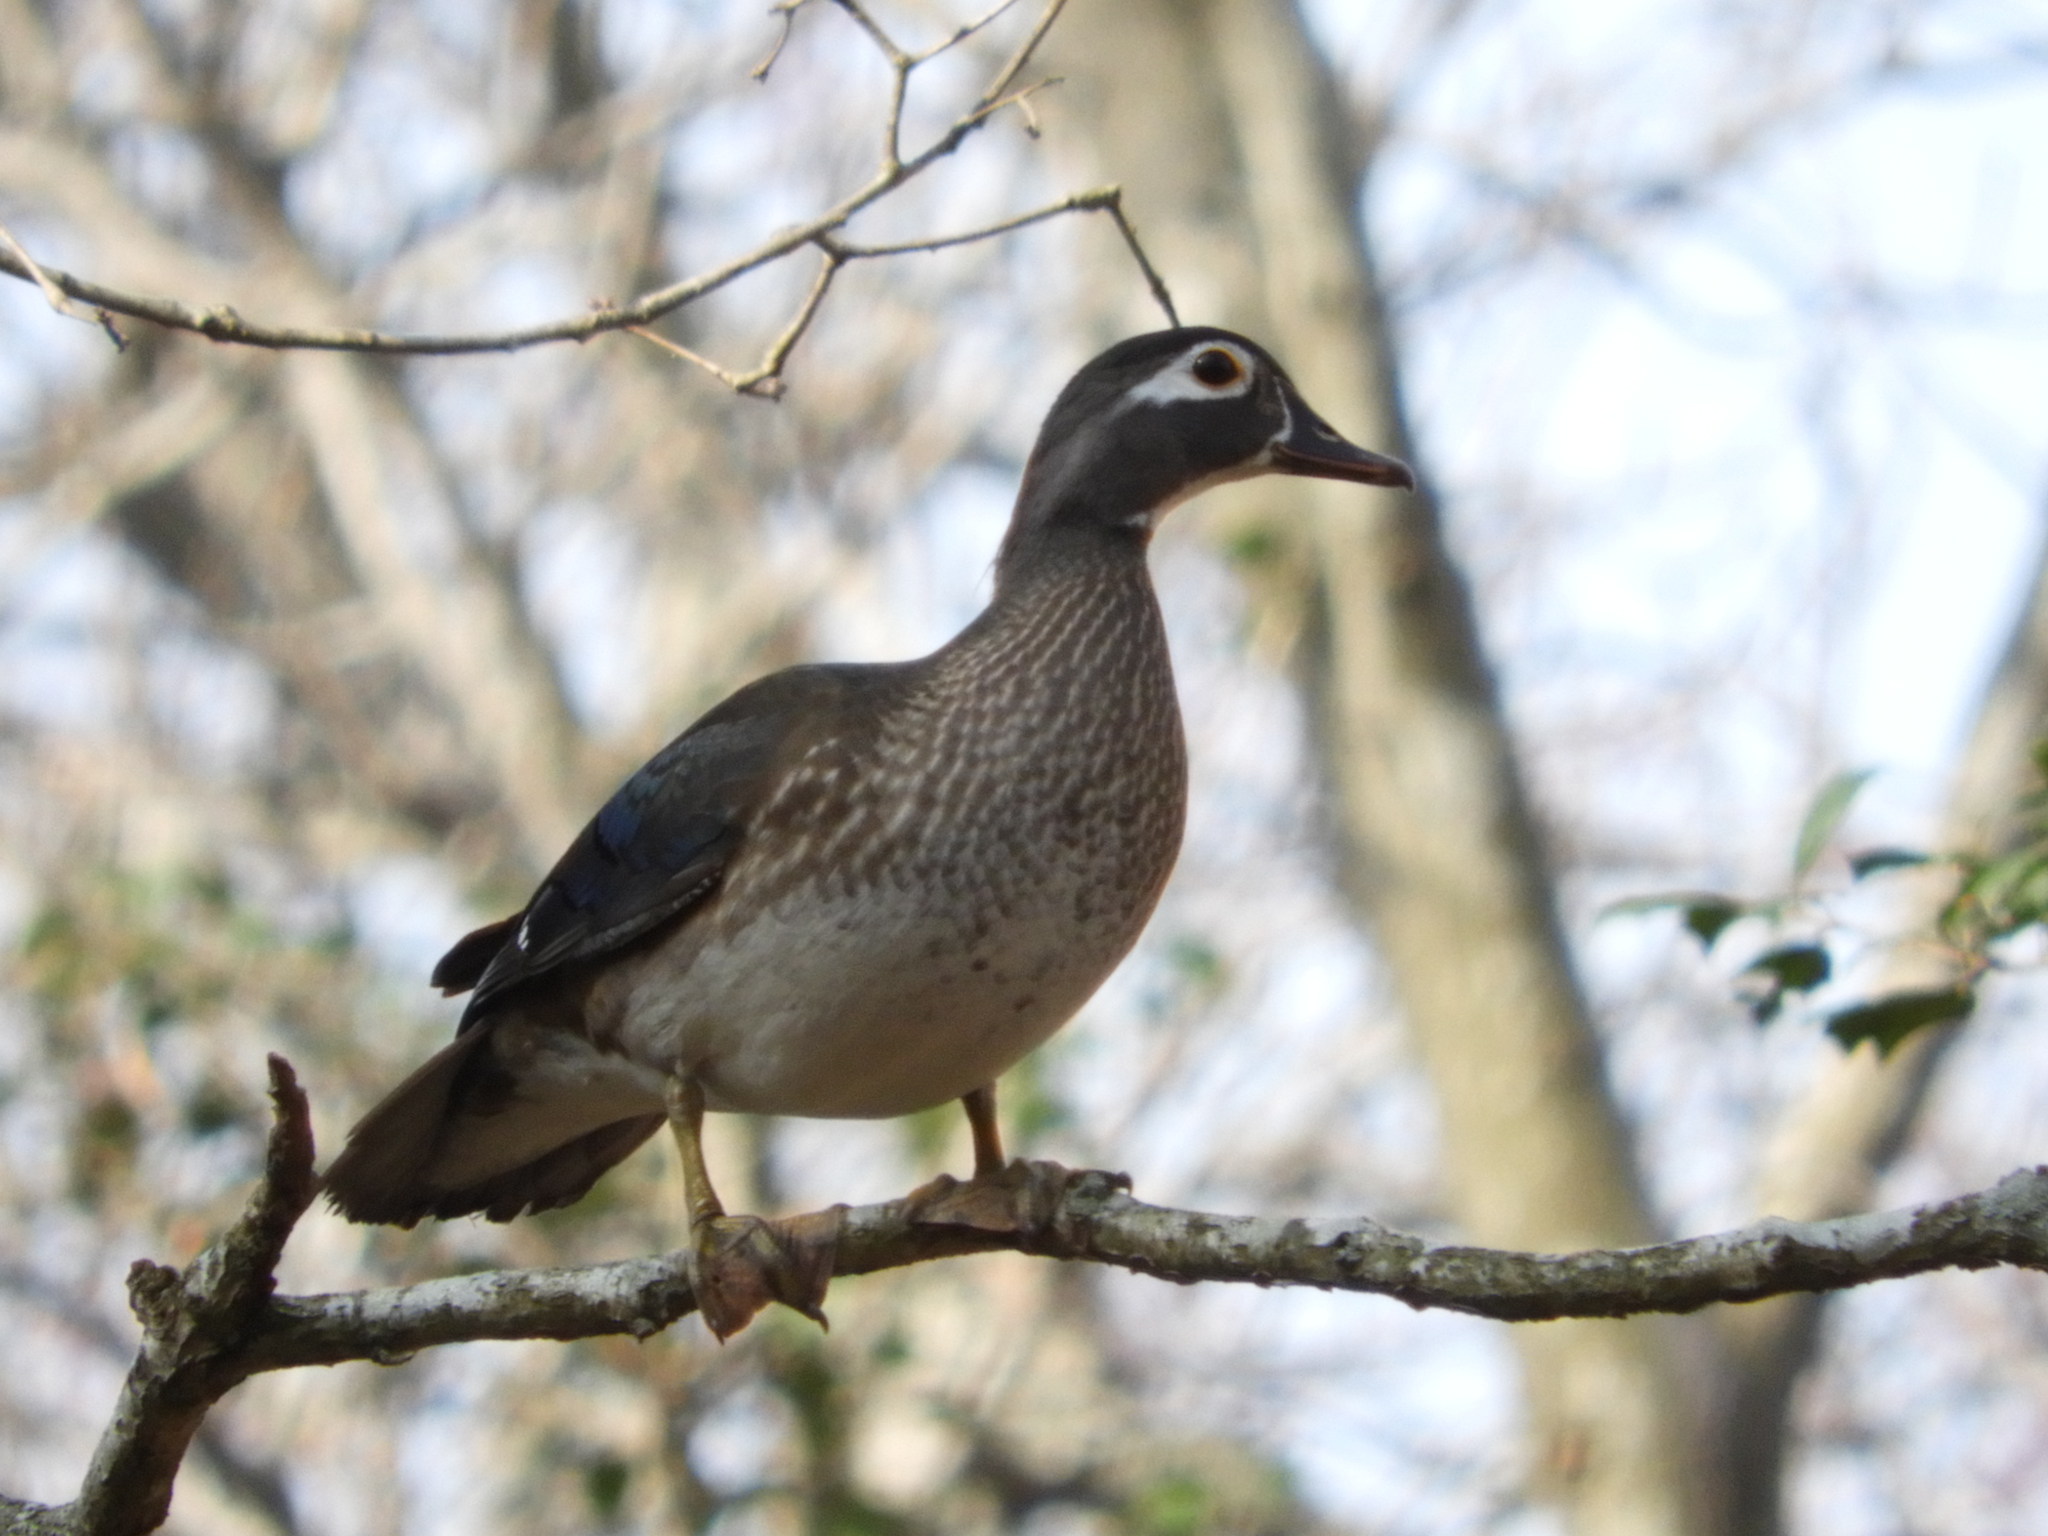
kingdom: Animalia
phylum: Chordata
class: Aves
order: Anseriformes
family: Anatidae
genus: Aix
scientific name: Aix sponsa
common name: Wood duck
